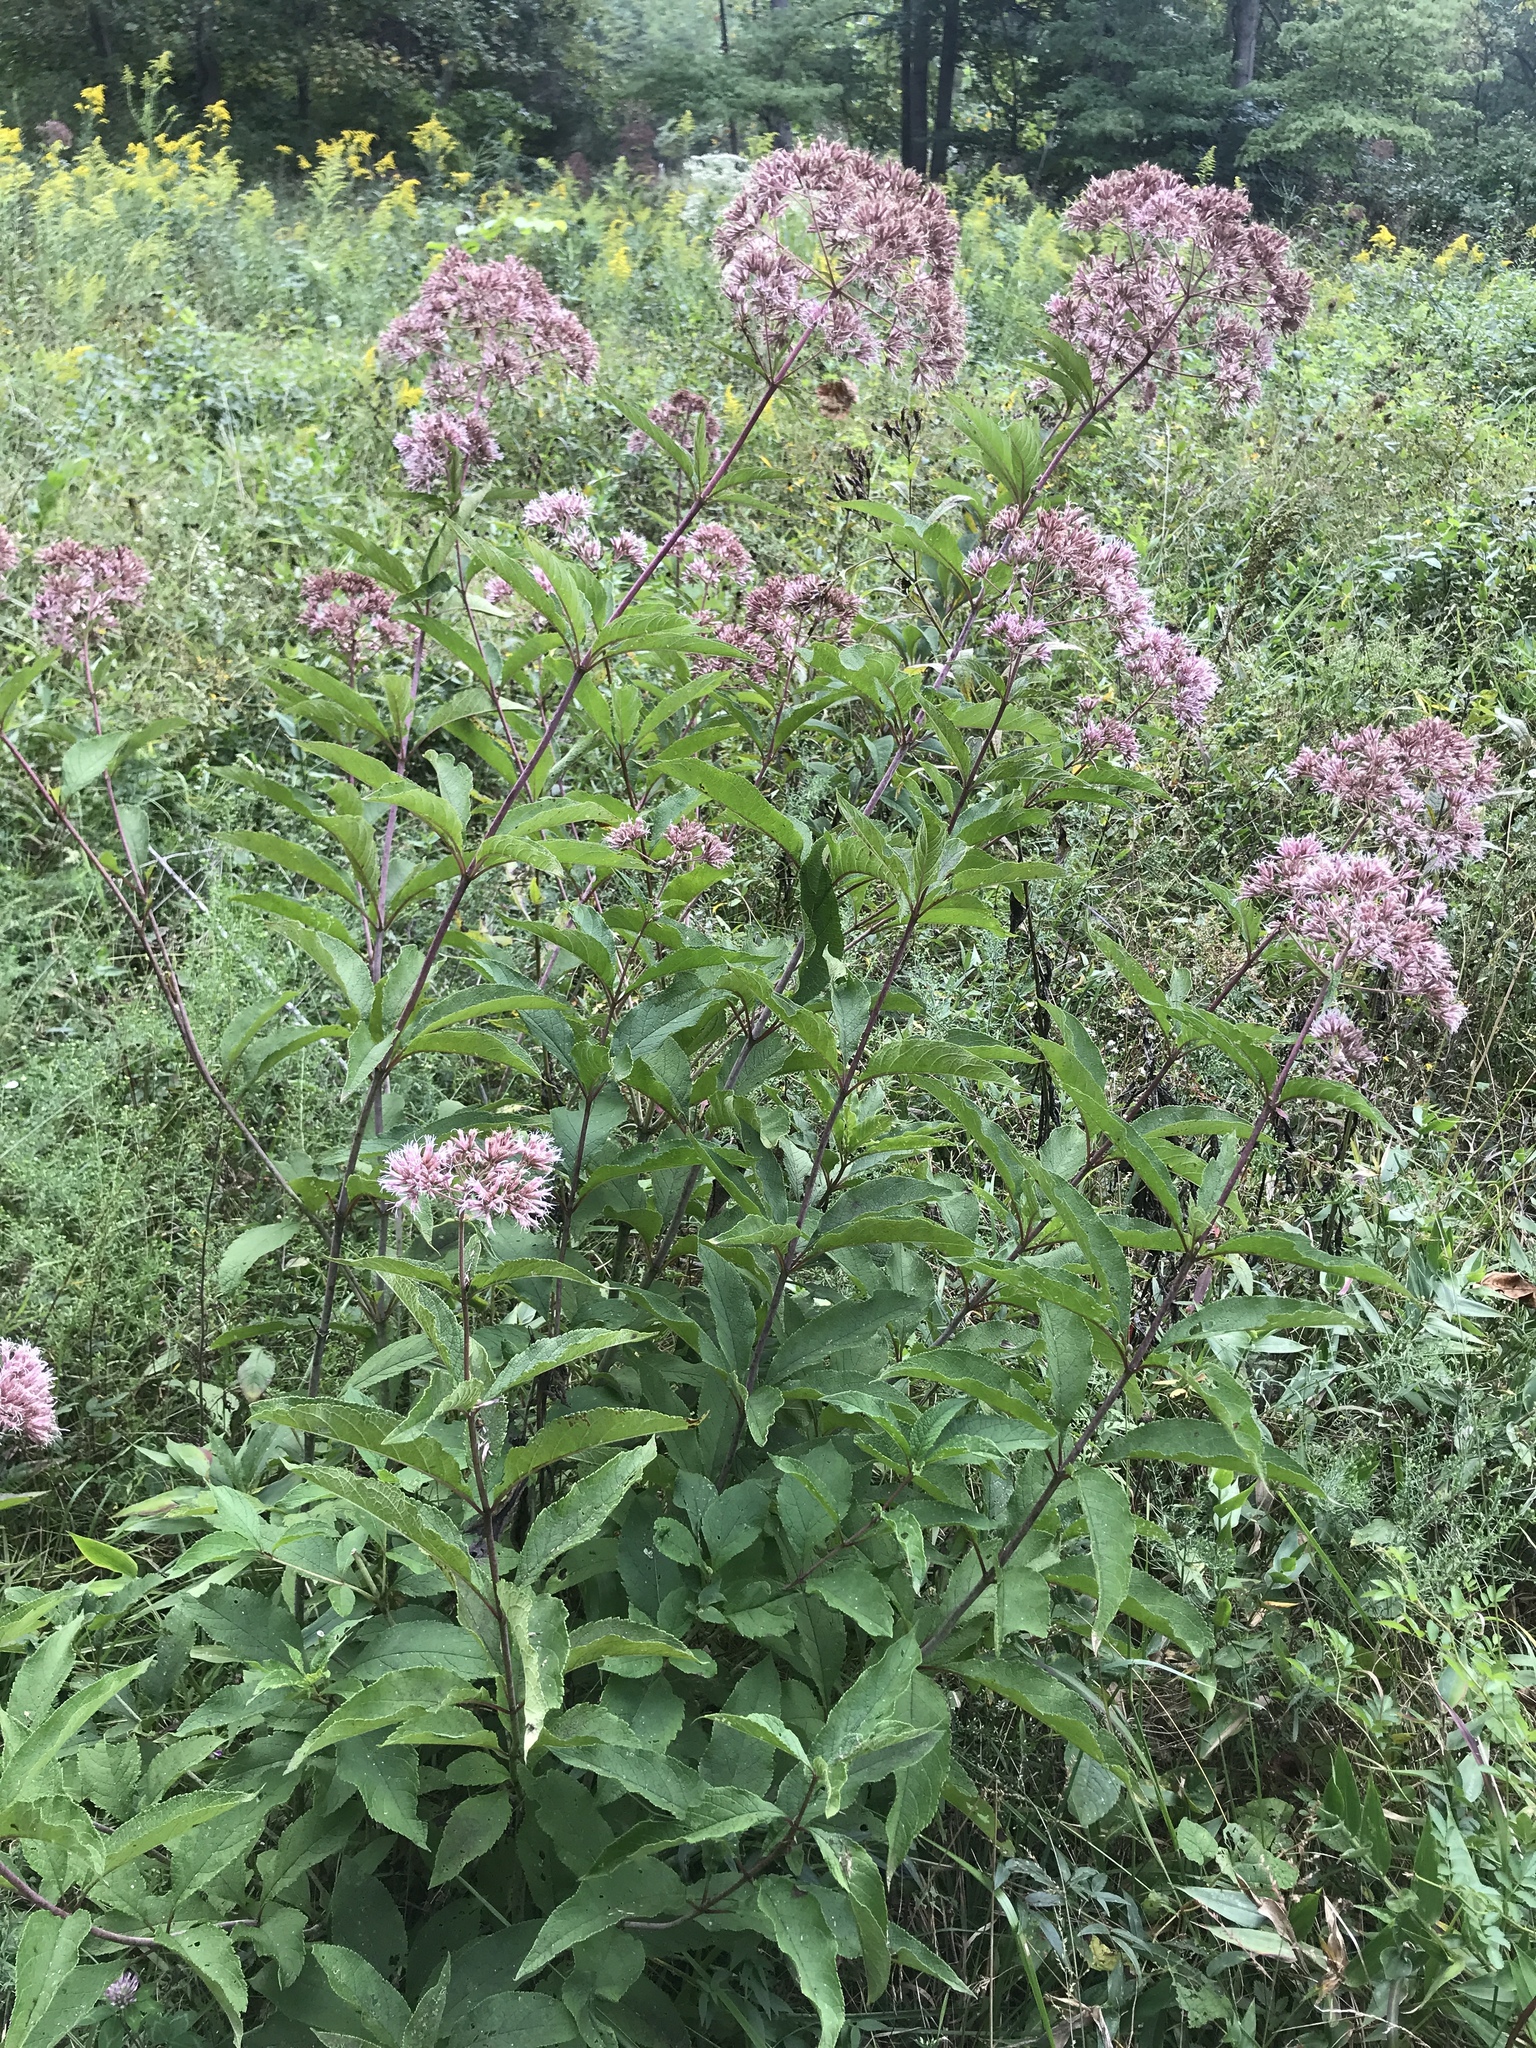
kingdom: Plantae
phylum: Tracheophyta
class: Magnoliopsida
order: Asterales
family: Asteraceae
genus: Eutrochium
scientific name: Eutrochium fistulosum
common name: Trumpetweed
